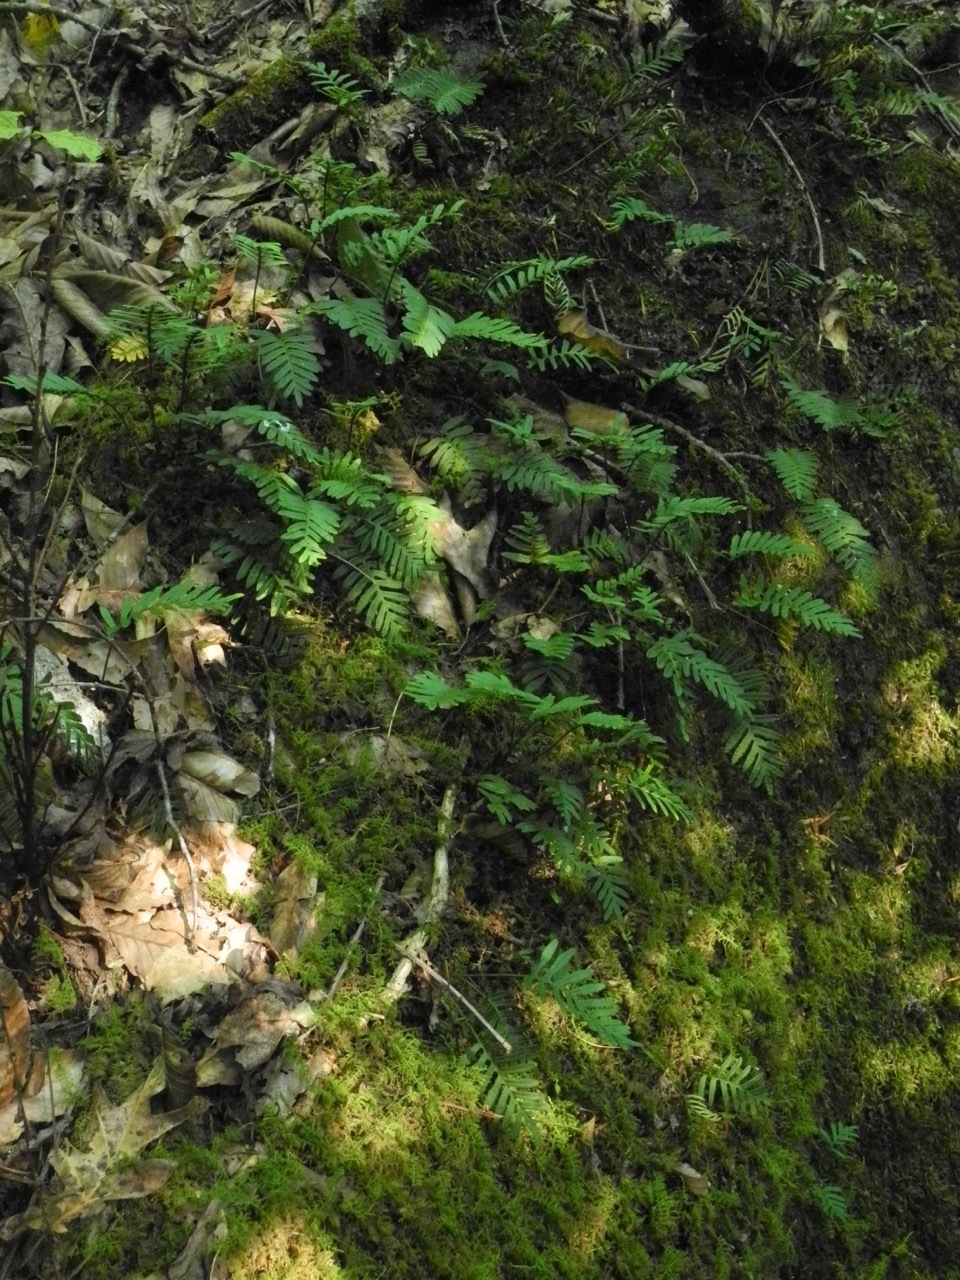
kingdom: Plantae
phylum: Tracheophyta
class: Polypodiopsida
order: Polypodiales
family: Polypodiaceae
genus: Pleopeltis
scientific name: Pleopeltis michauxiana
